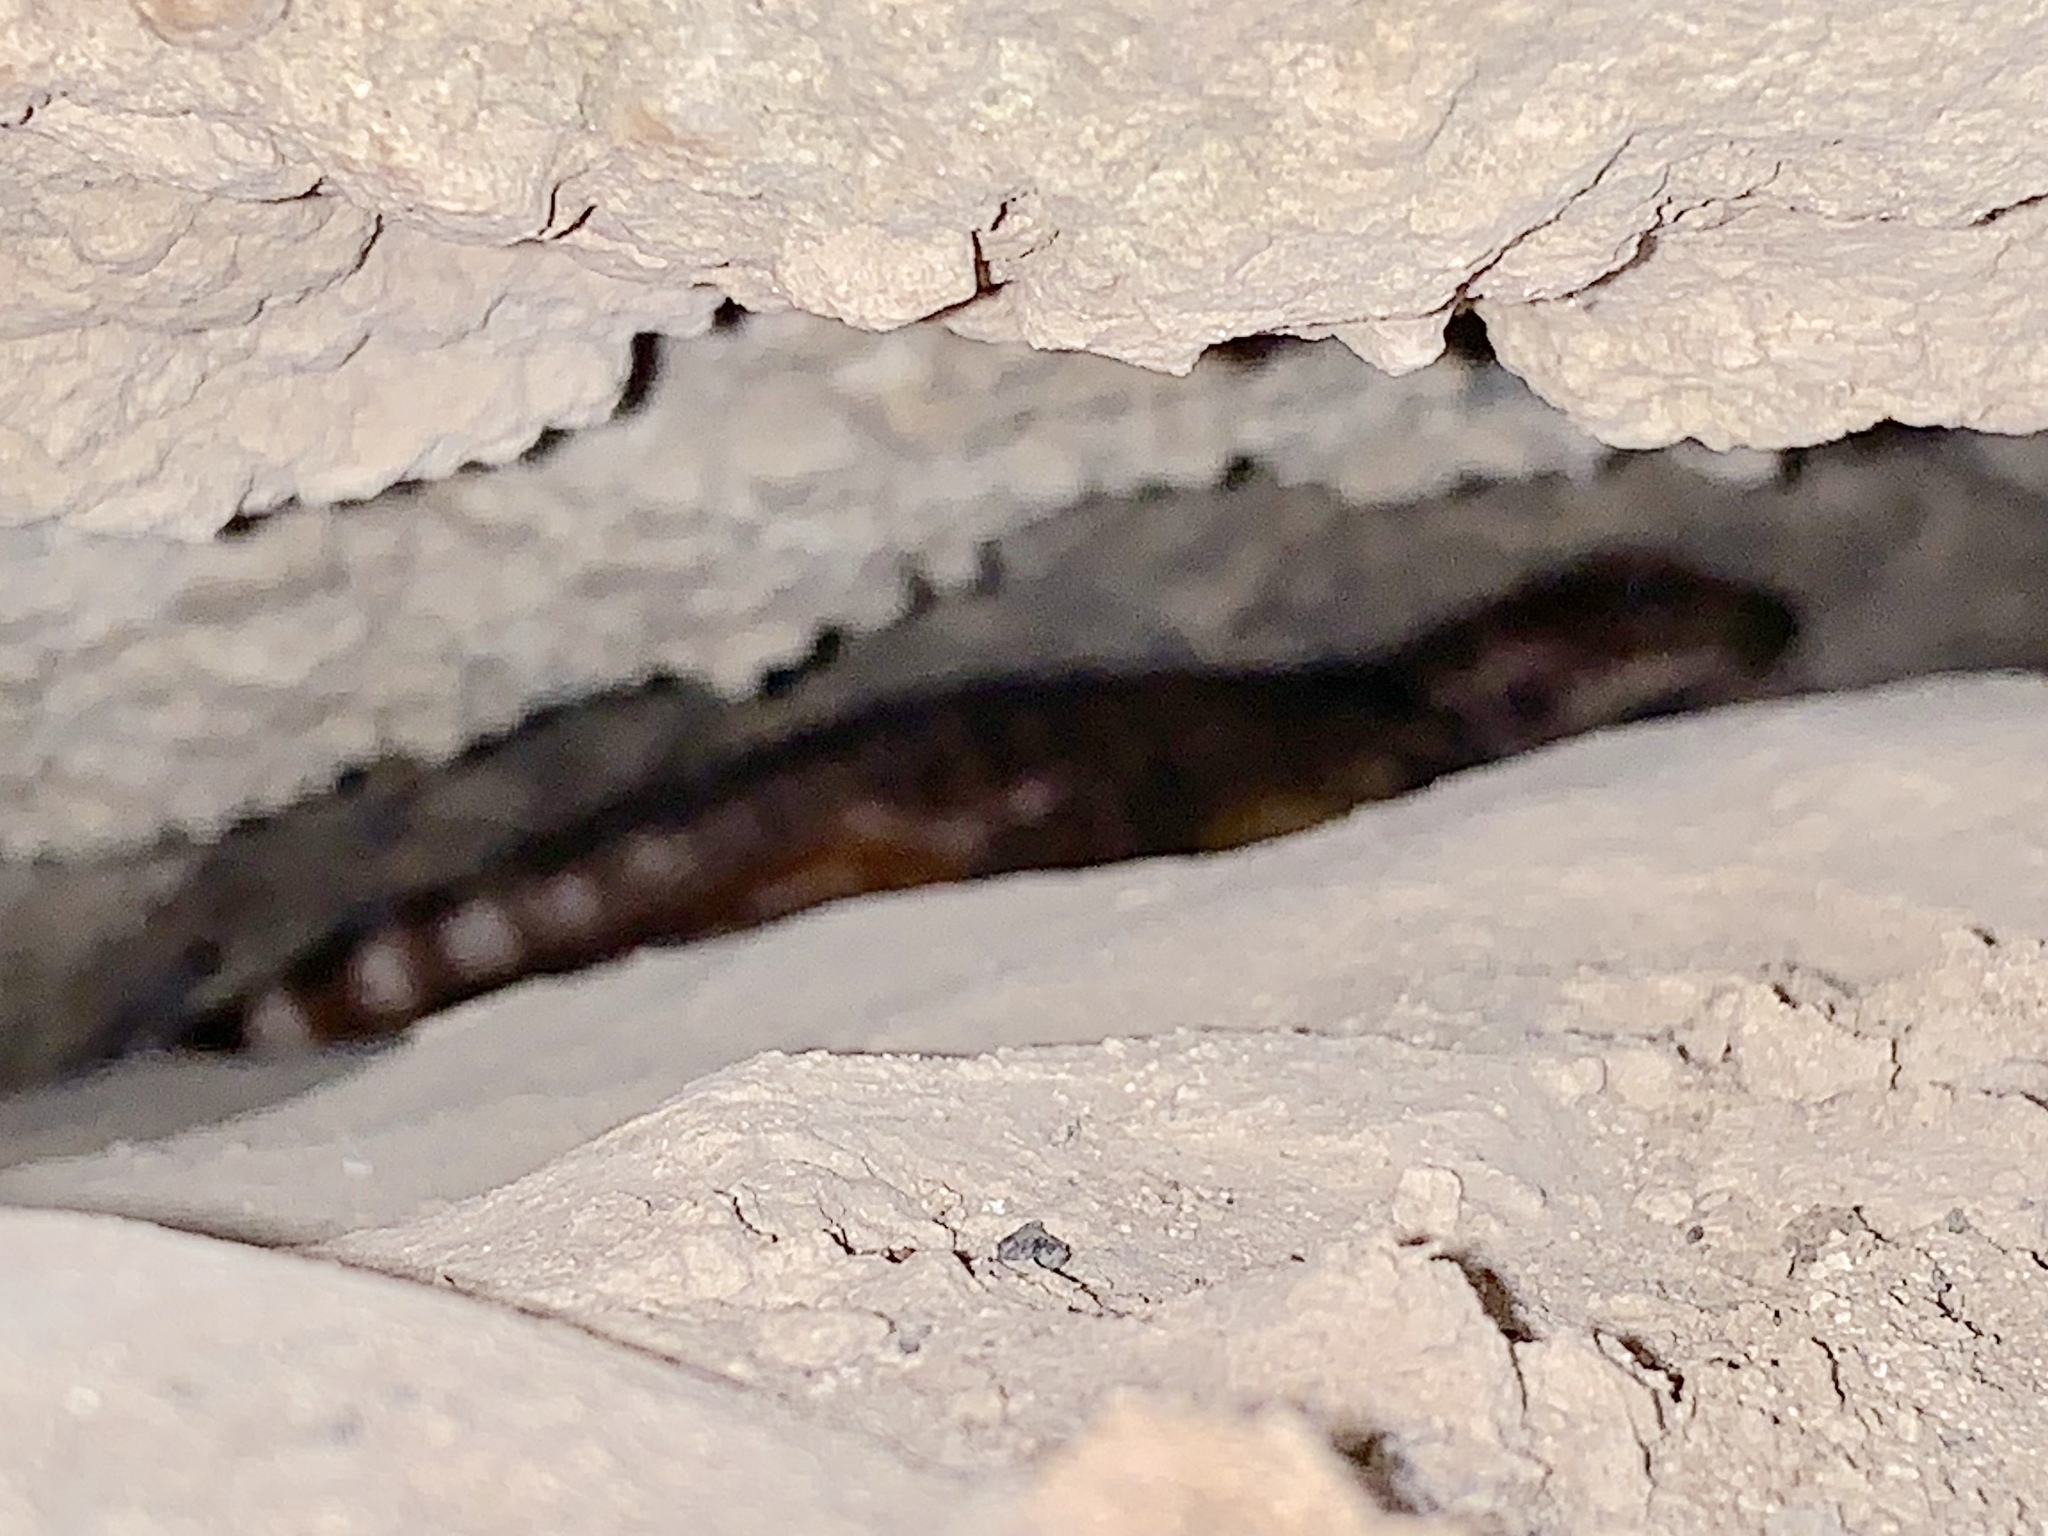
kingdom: Animalia
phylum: Chordata
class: Squamata
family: Phrynosomatidae
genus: Sceloporus
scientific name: Sceloporus poinsettii
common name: Crevice spiny lizard
